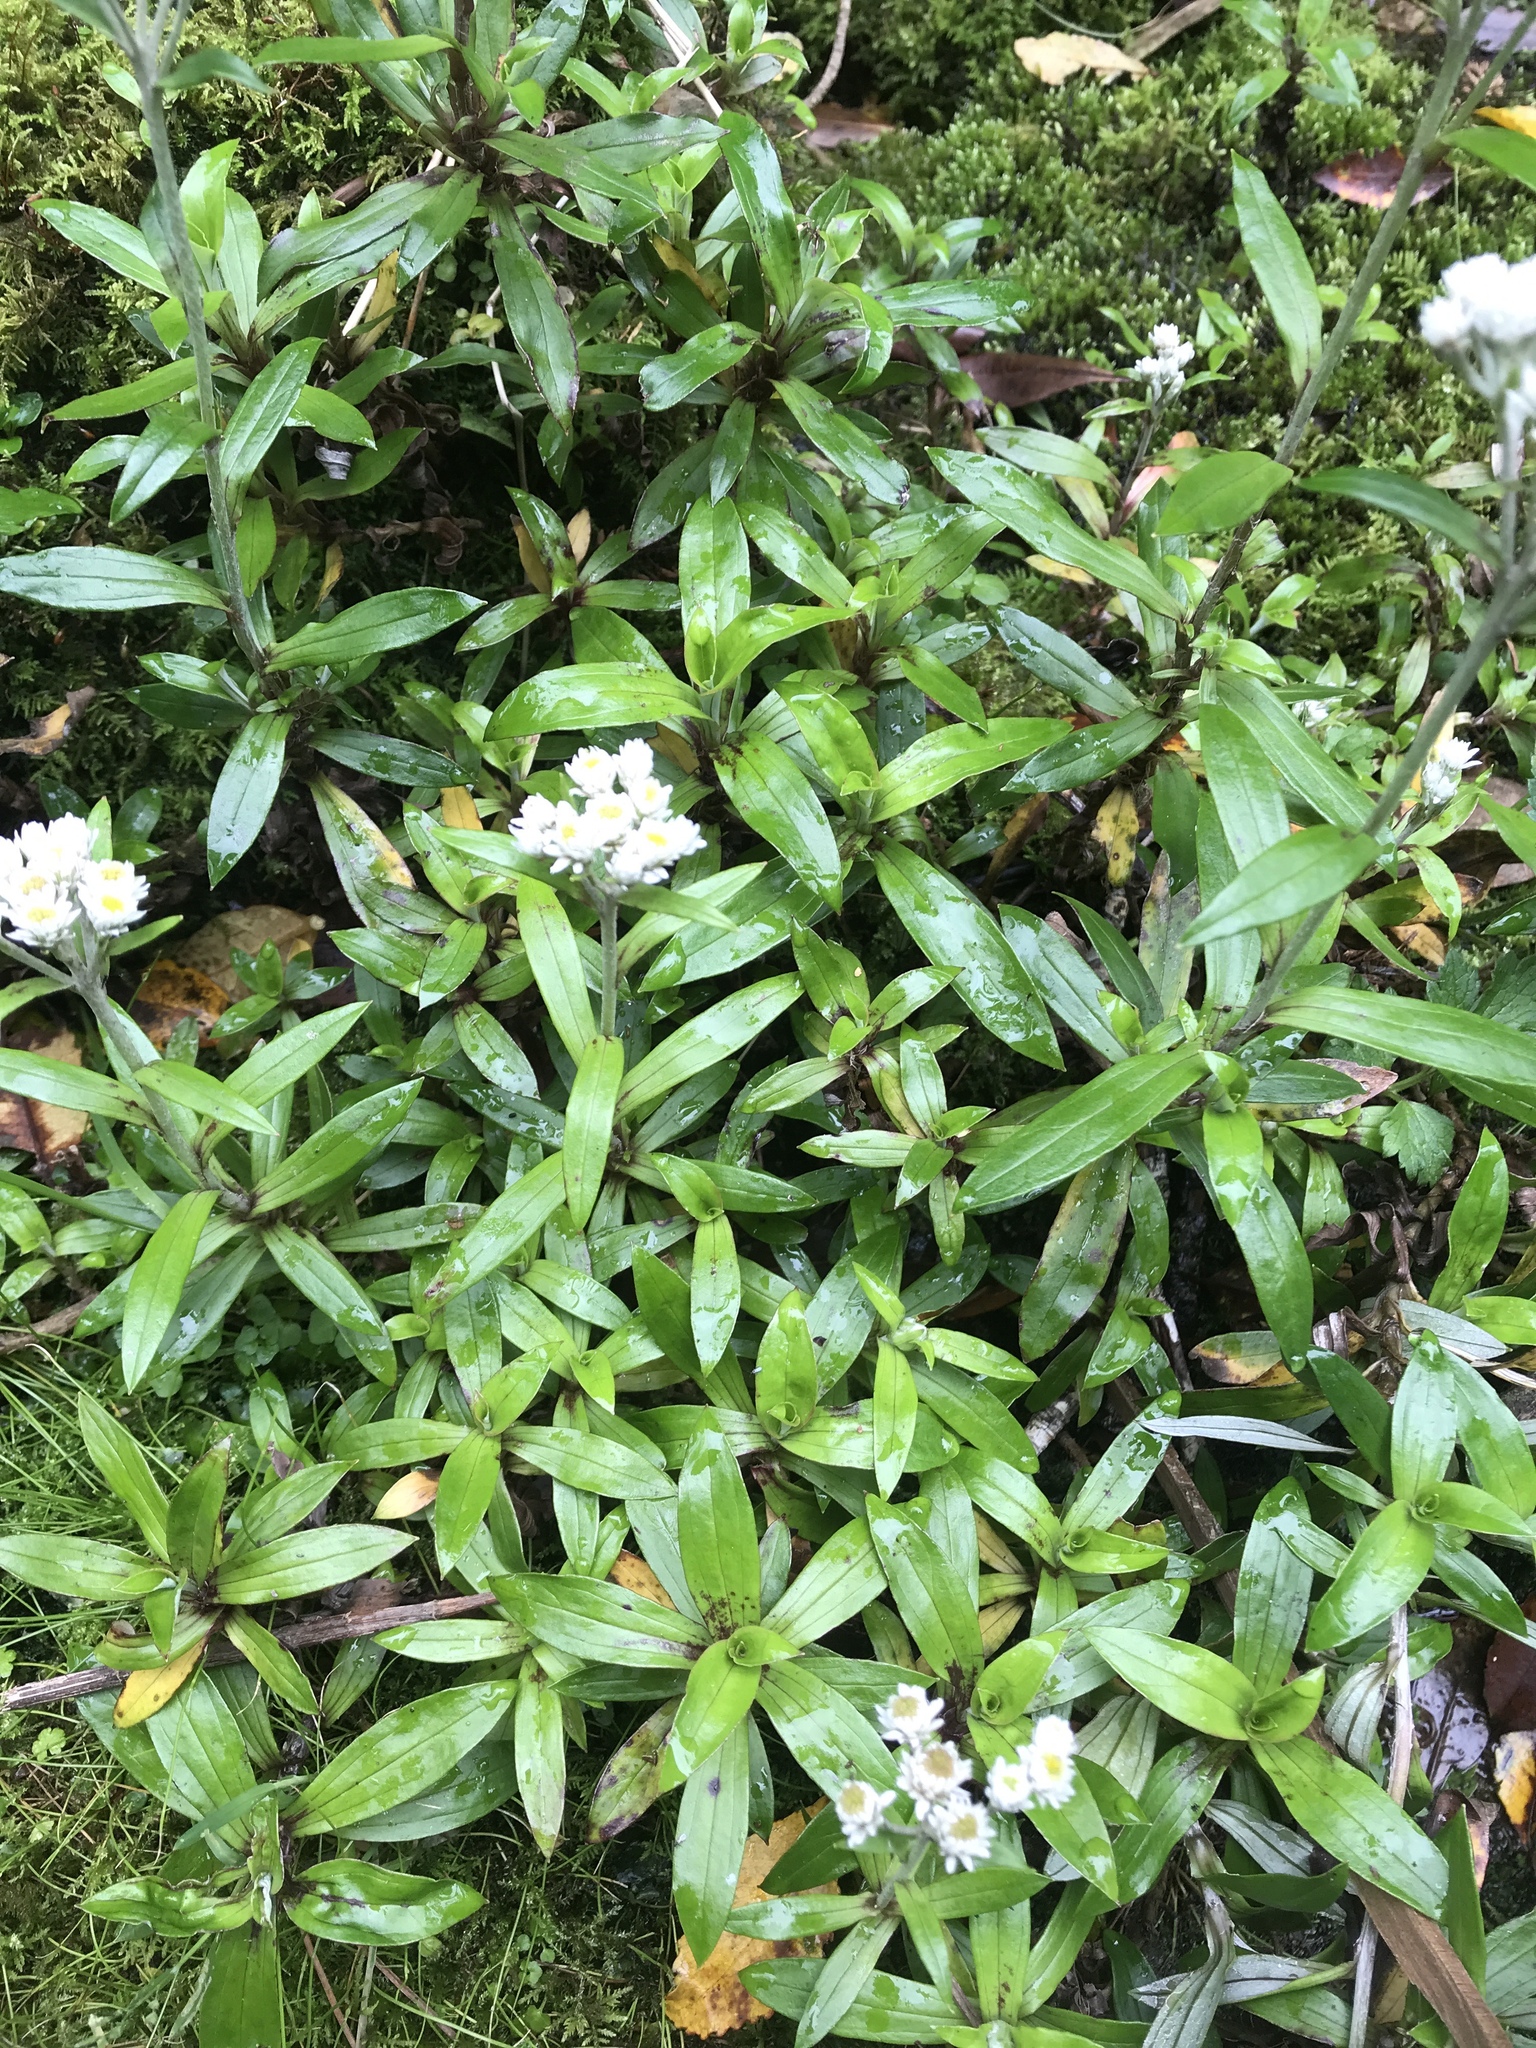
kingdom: Plantae
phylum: Tracheophyta
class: Magnoliopsida
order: Asterales
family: Asteraceae
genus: Anaphalioides
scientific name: Anaphalioides trinervis
